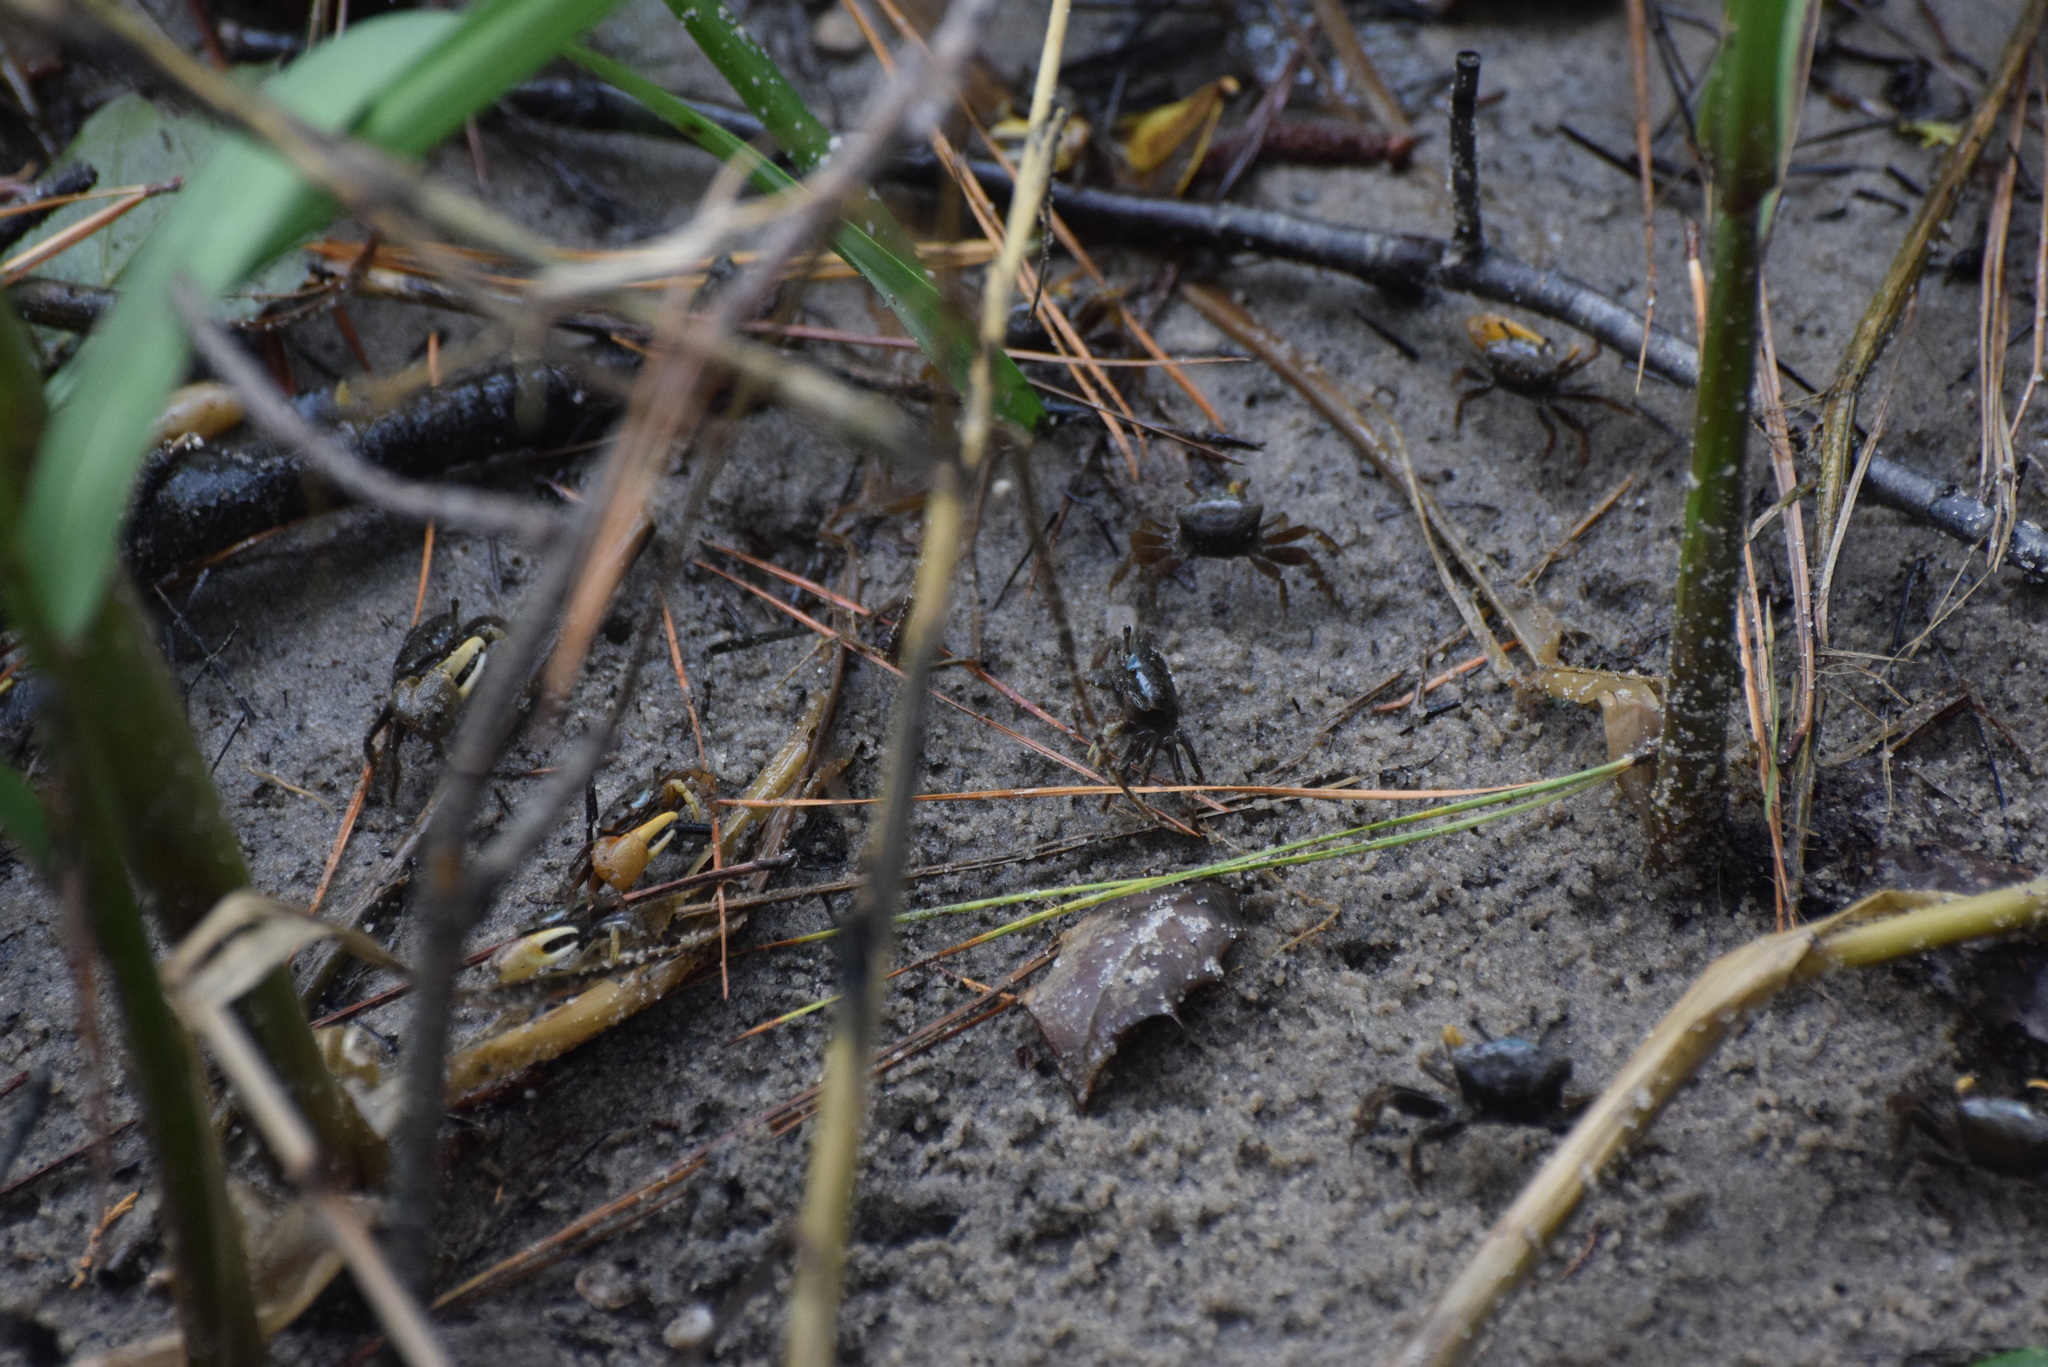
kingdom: Animalia
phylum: Arthropoda
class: Malacostraca
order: Decapoda
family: Ocypodidae
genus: Minuca
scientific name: Minuca pugnax
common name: Mud fiddler crab
